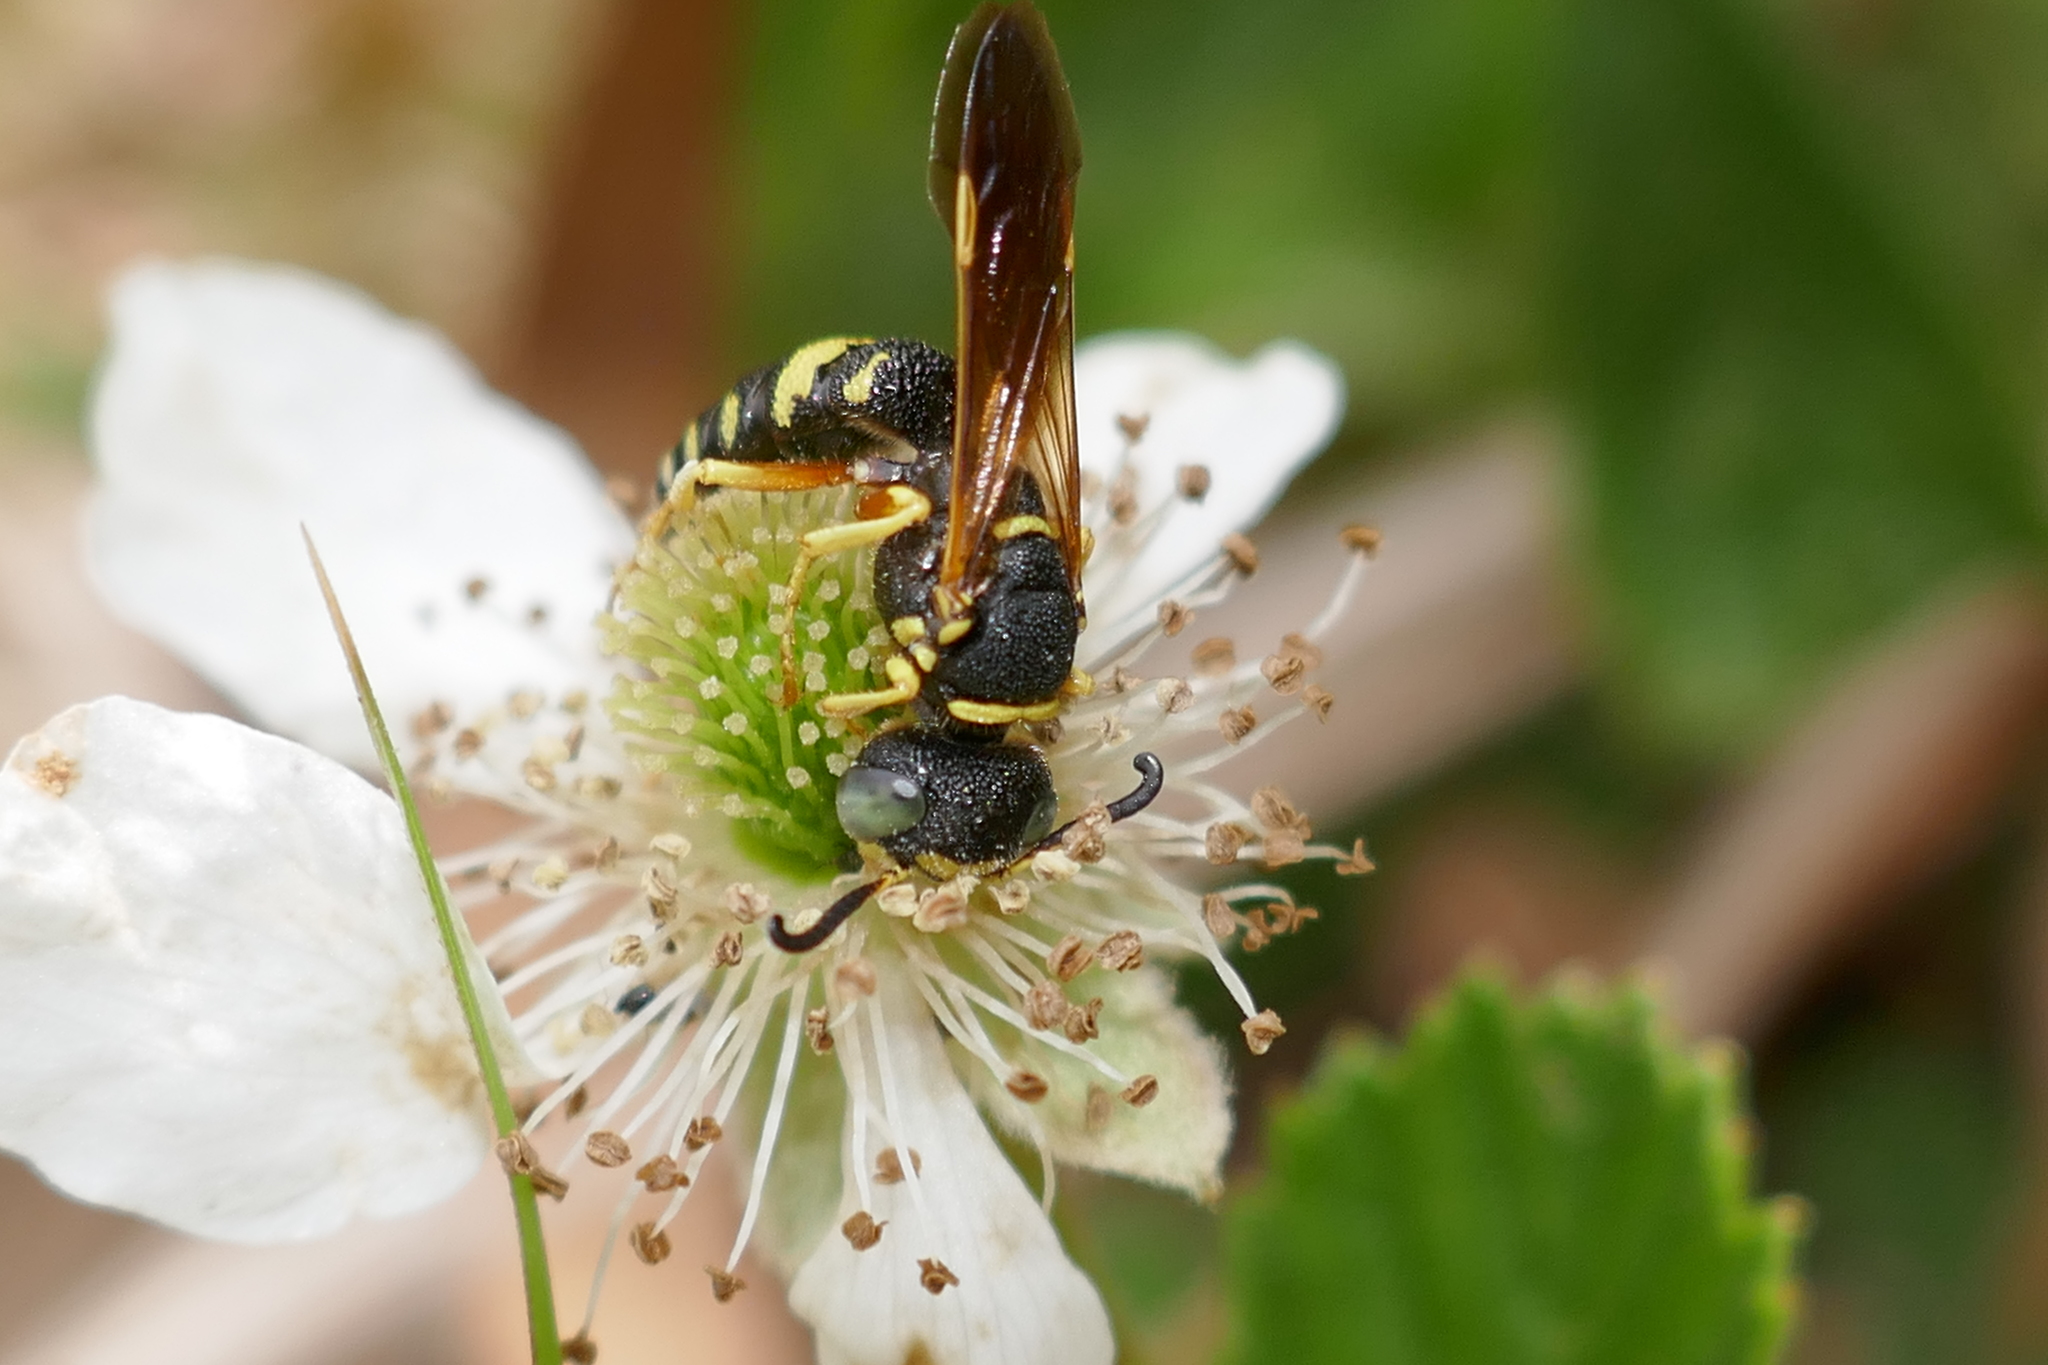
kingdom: Animalia
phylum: Arthropoda
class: Insecta
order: Hymenoptera
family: Crabronidae
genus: Philanthus
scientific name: Philanthus ventilabris
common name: Bee-killer wasp
